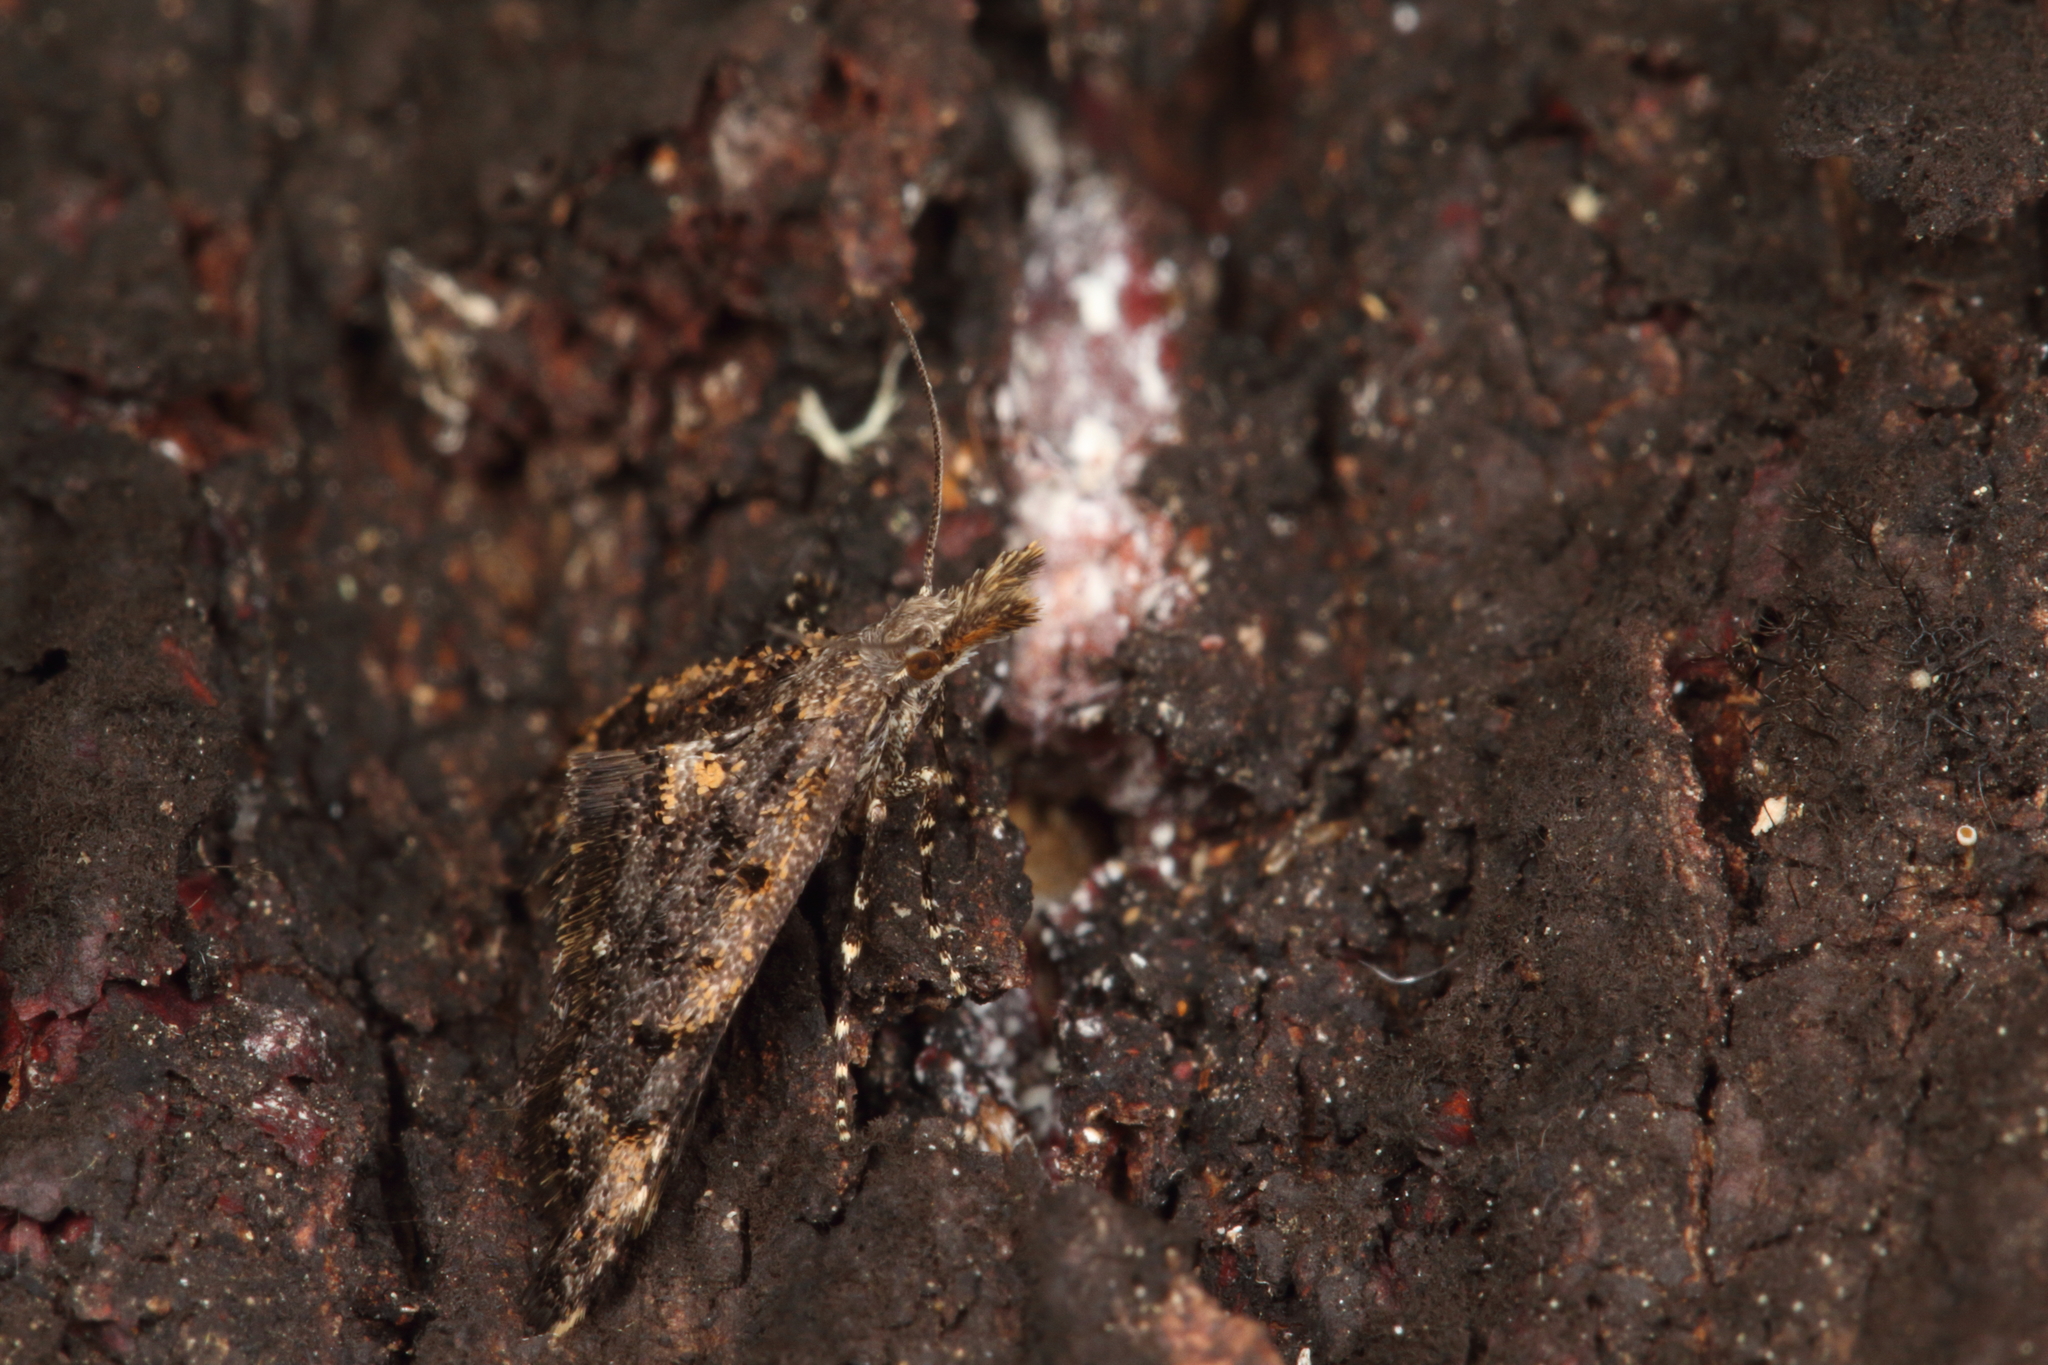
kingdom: Animalia
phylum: Arthropoda
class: Insecta
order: Lepidoptera
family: Copromorphidae
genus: Isonomeutis
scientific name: Isonomeutis amauropa
